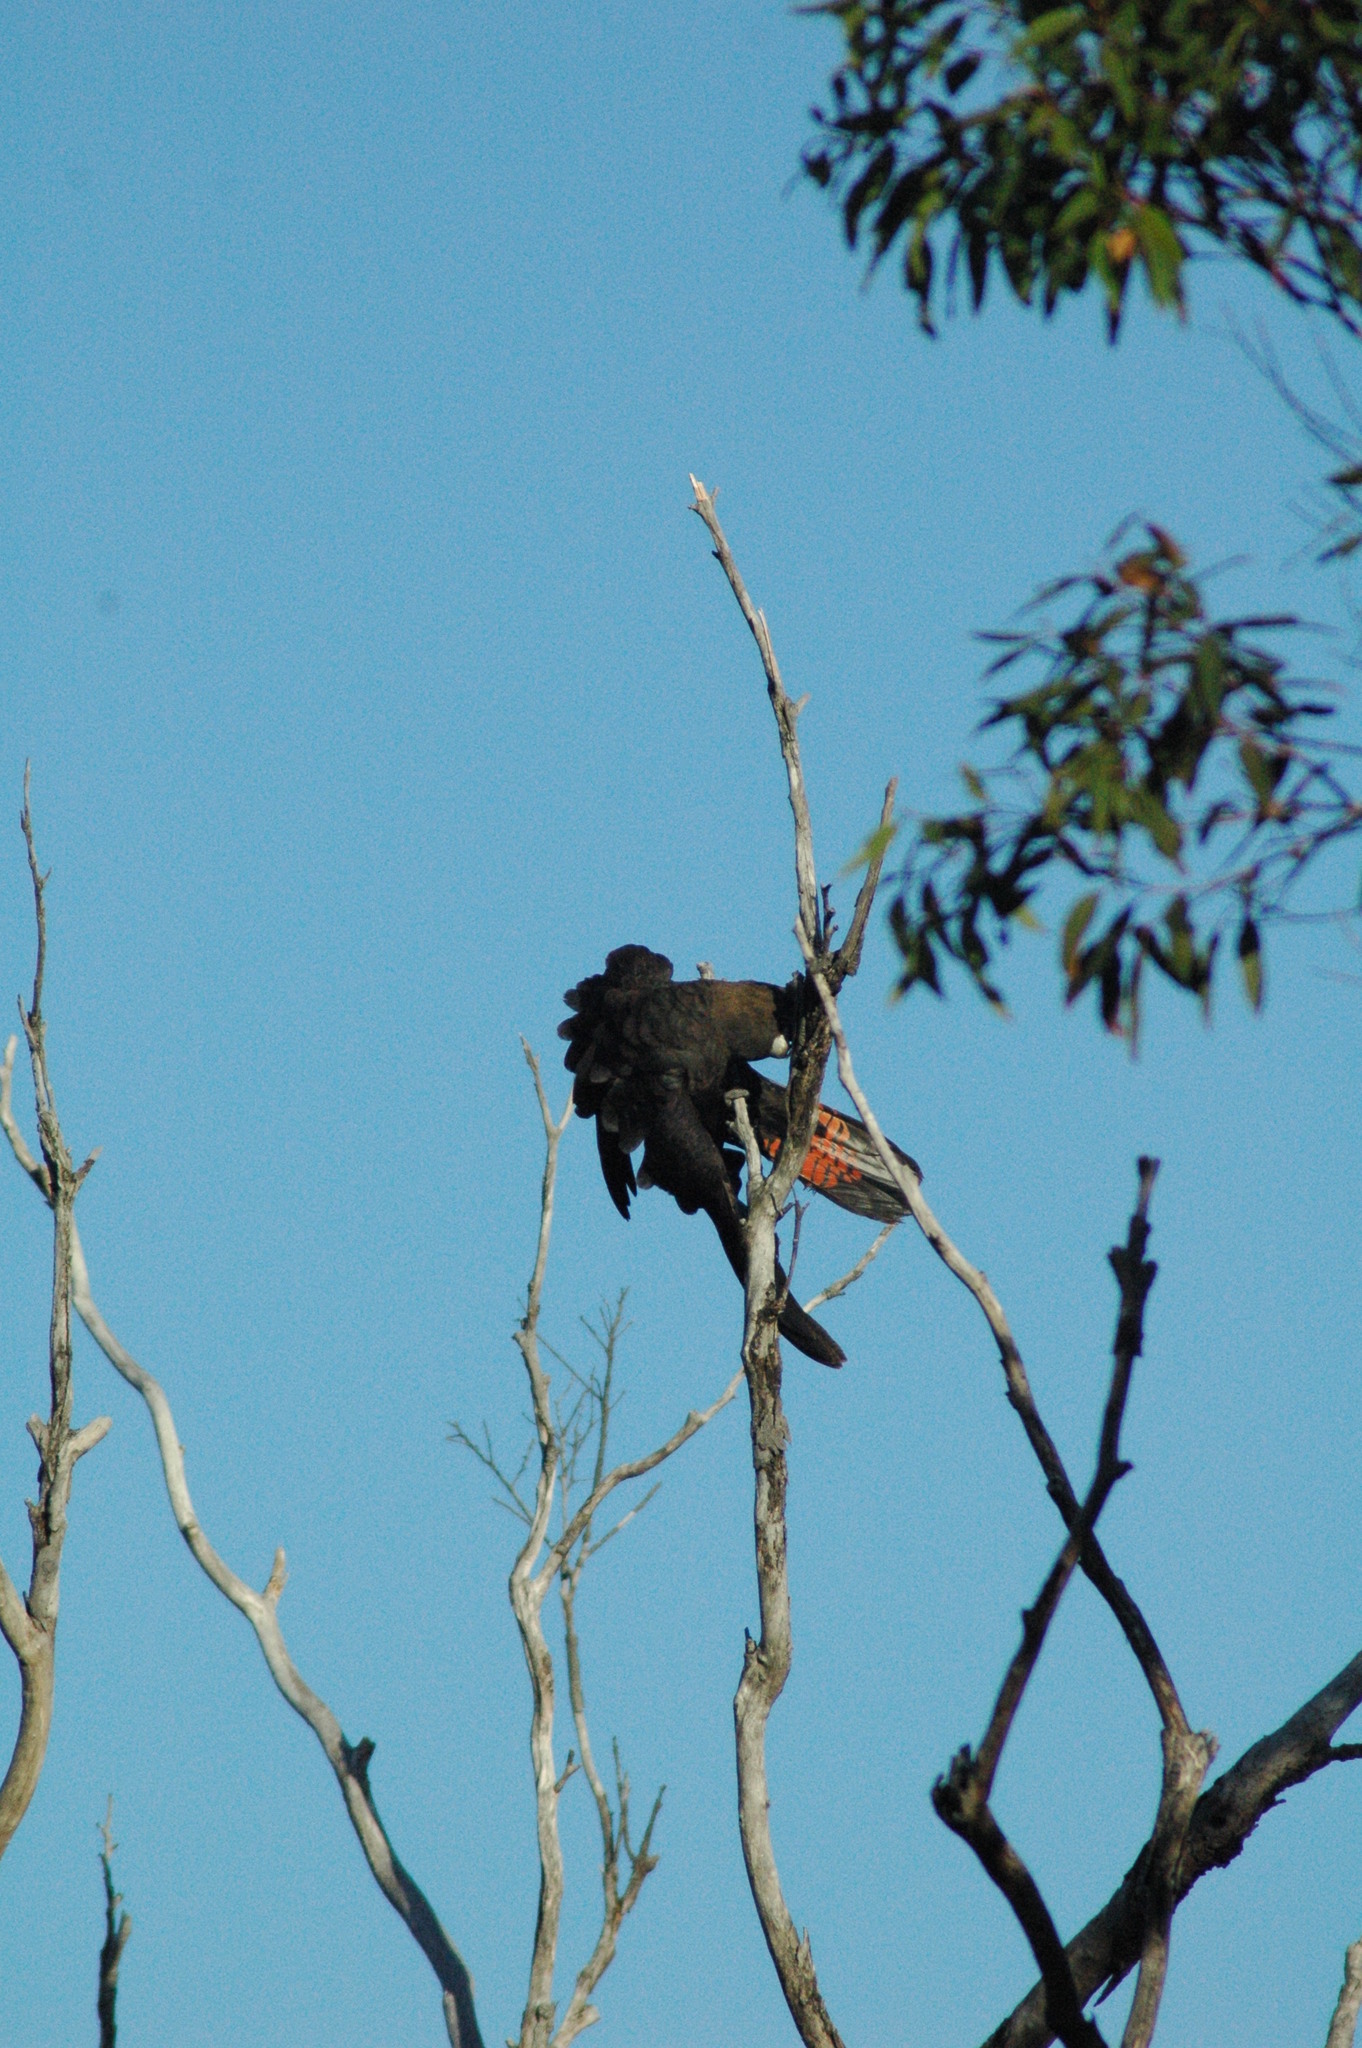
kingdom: Animalia
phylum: Chordata
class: Aves
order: Psittaciformes
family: Psittacidae
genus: Calyptorhynchus
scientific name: Calyptorhynchus lathami
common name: Glossy black cockatoo
